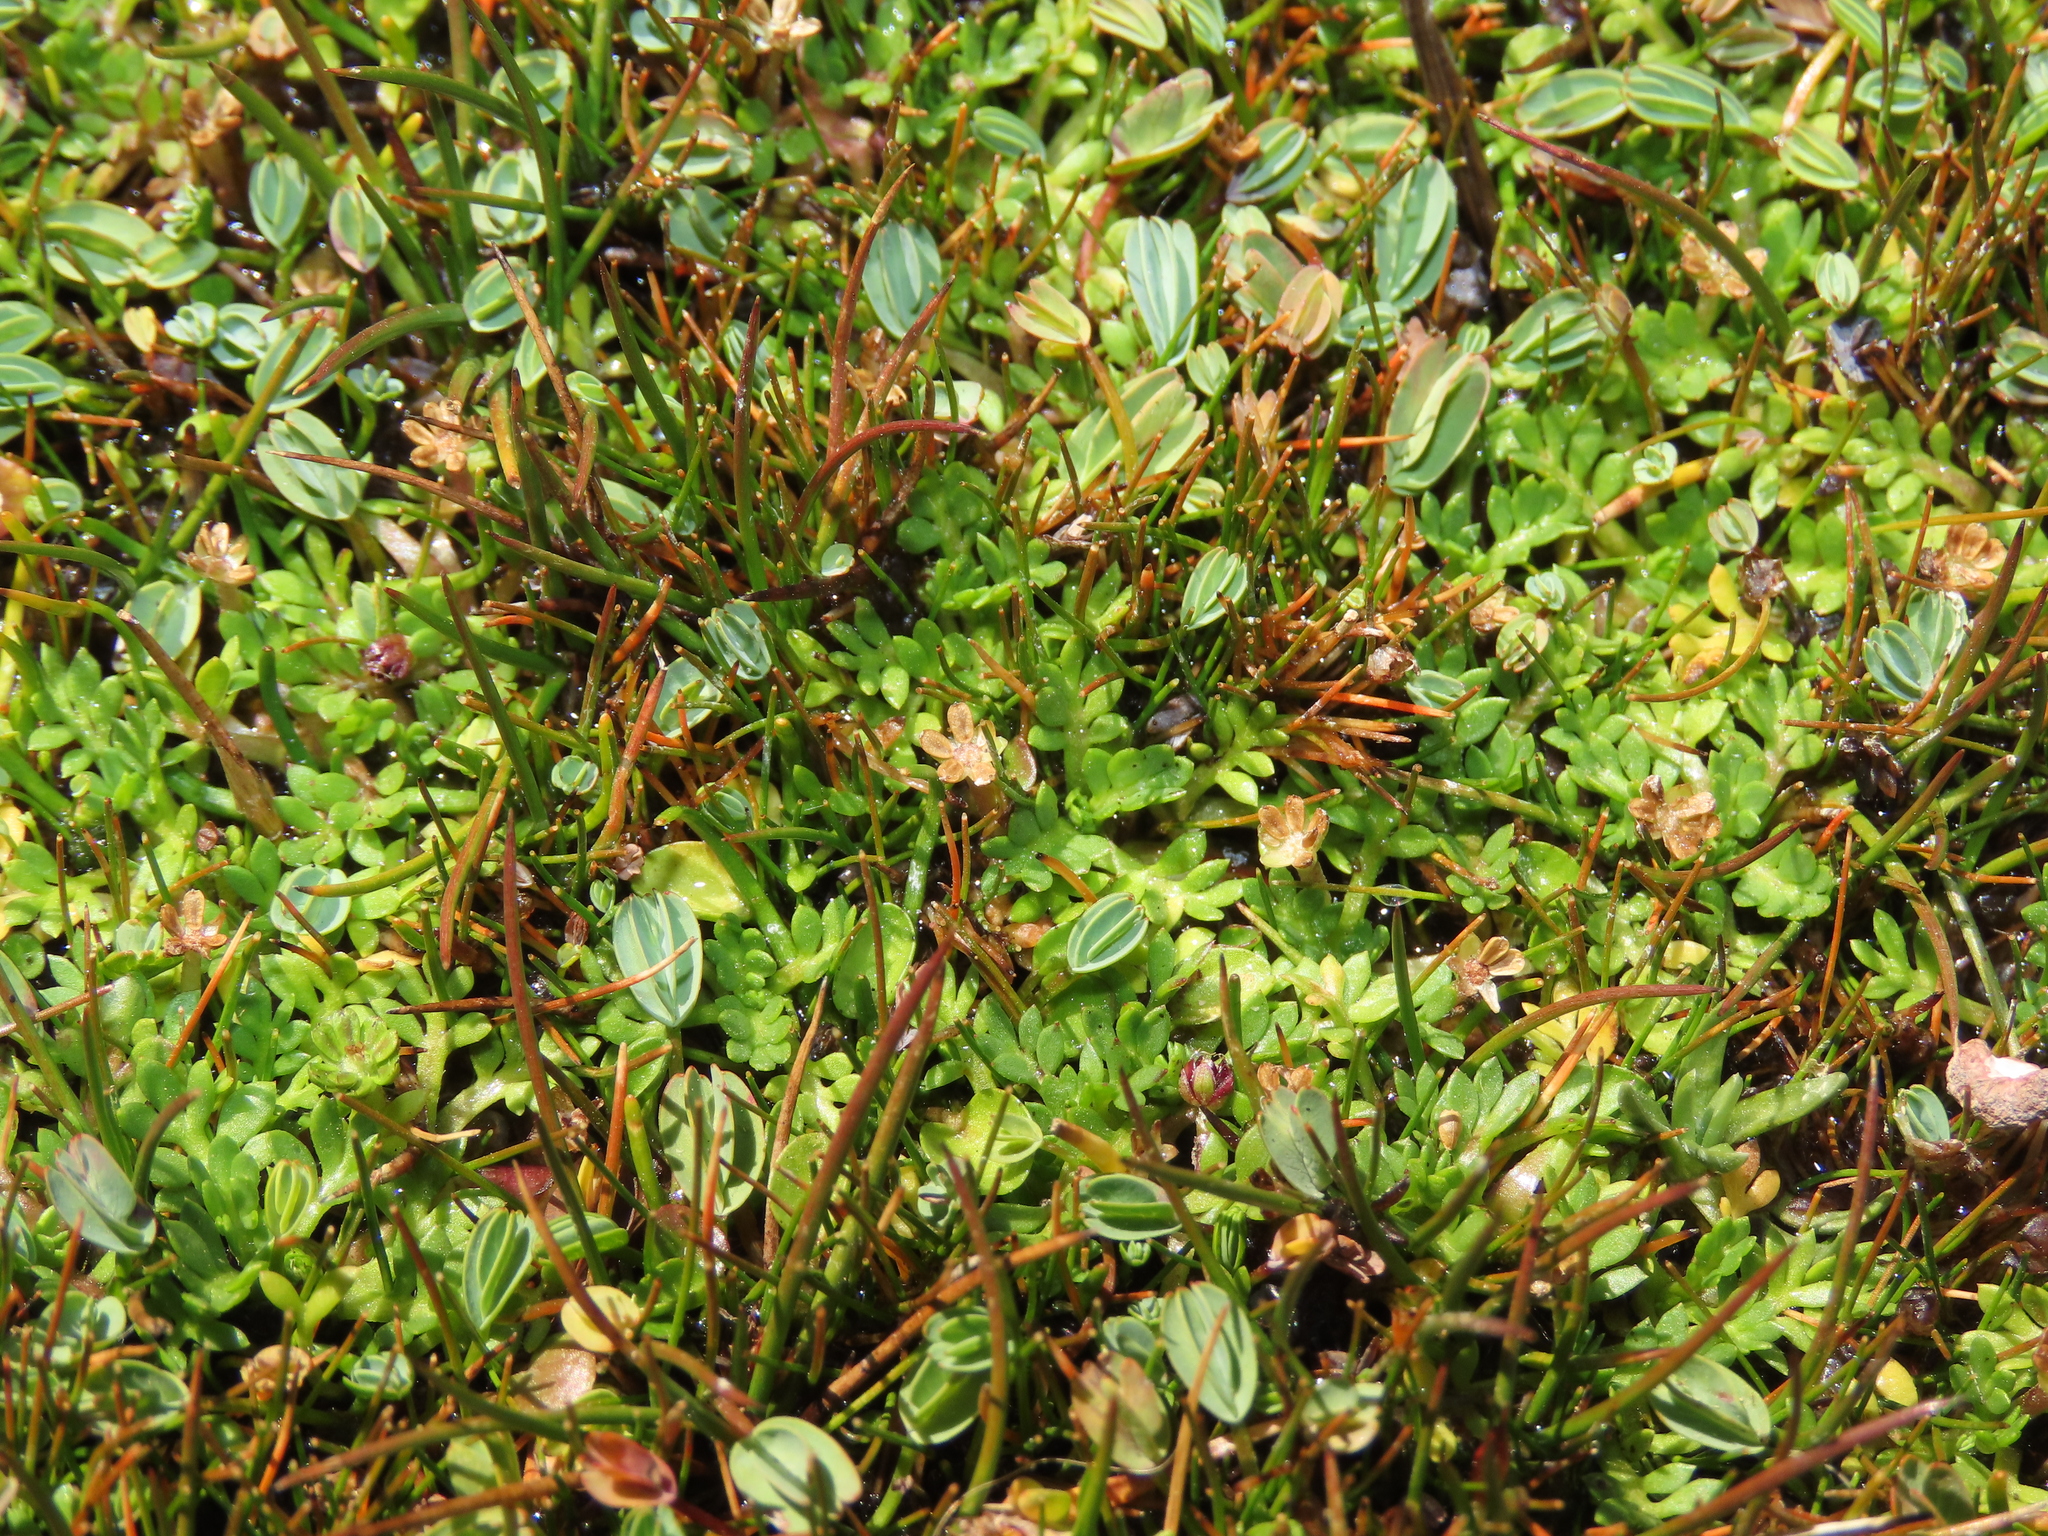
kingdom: Plantae
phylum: Tracheophyta
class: Magnoliopsida
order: Asterales
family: Asteraceae
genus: Soliva
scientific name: Soliva mexicana
